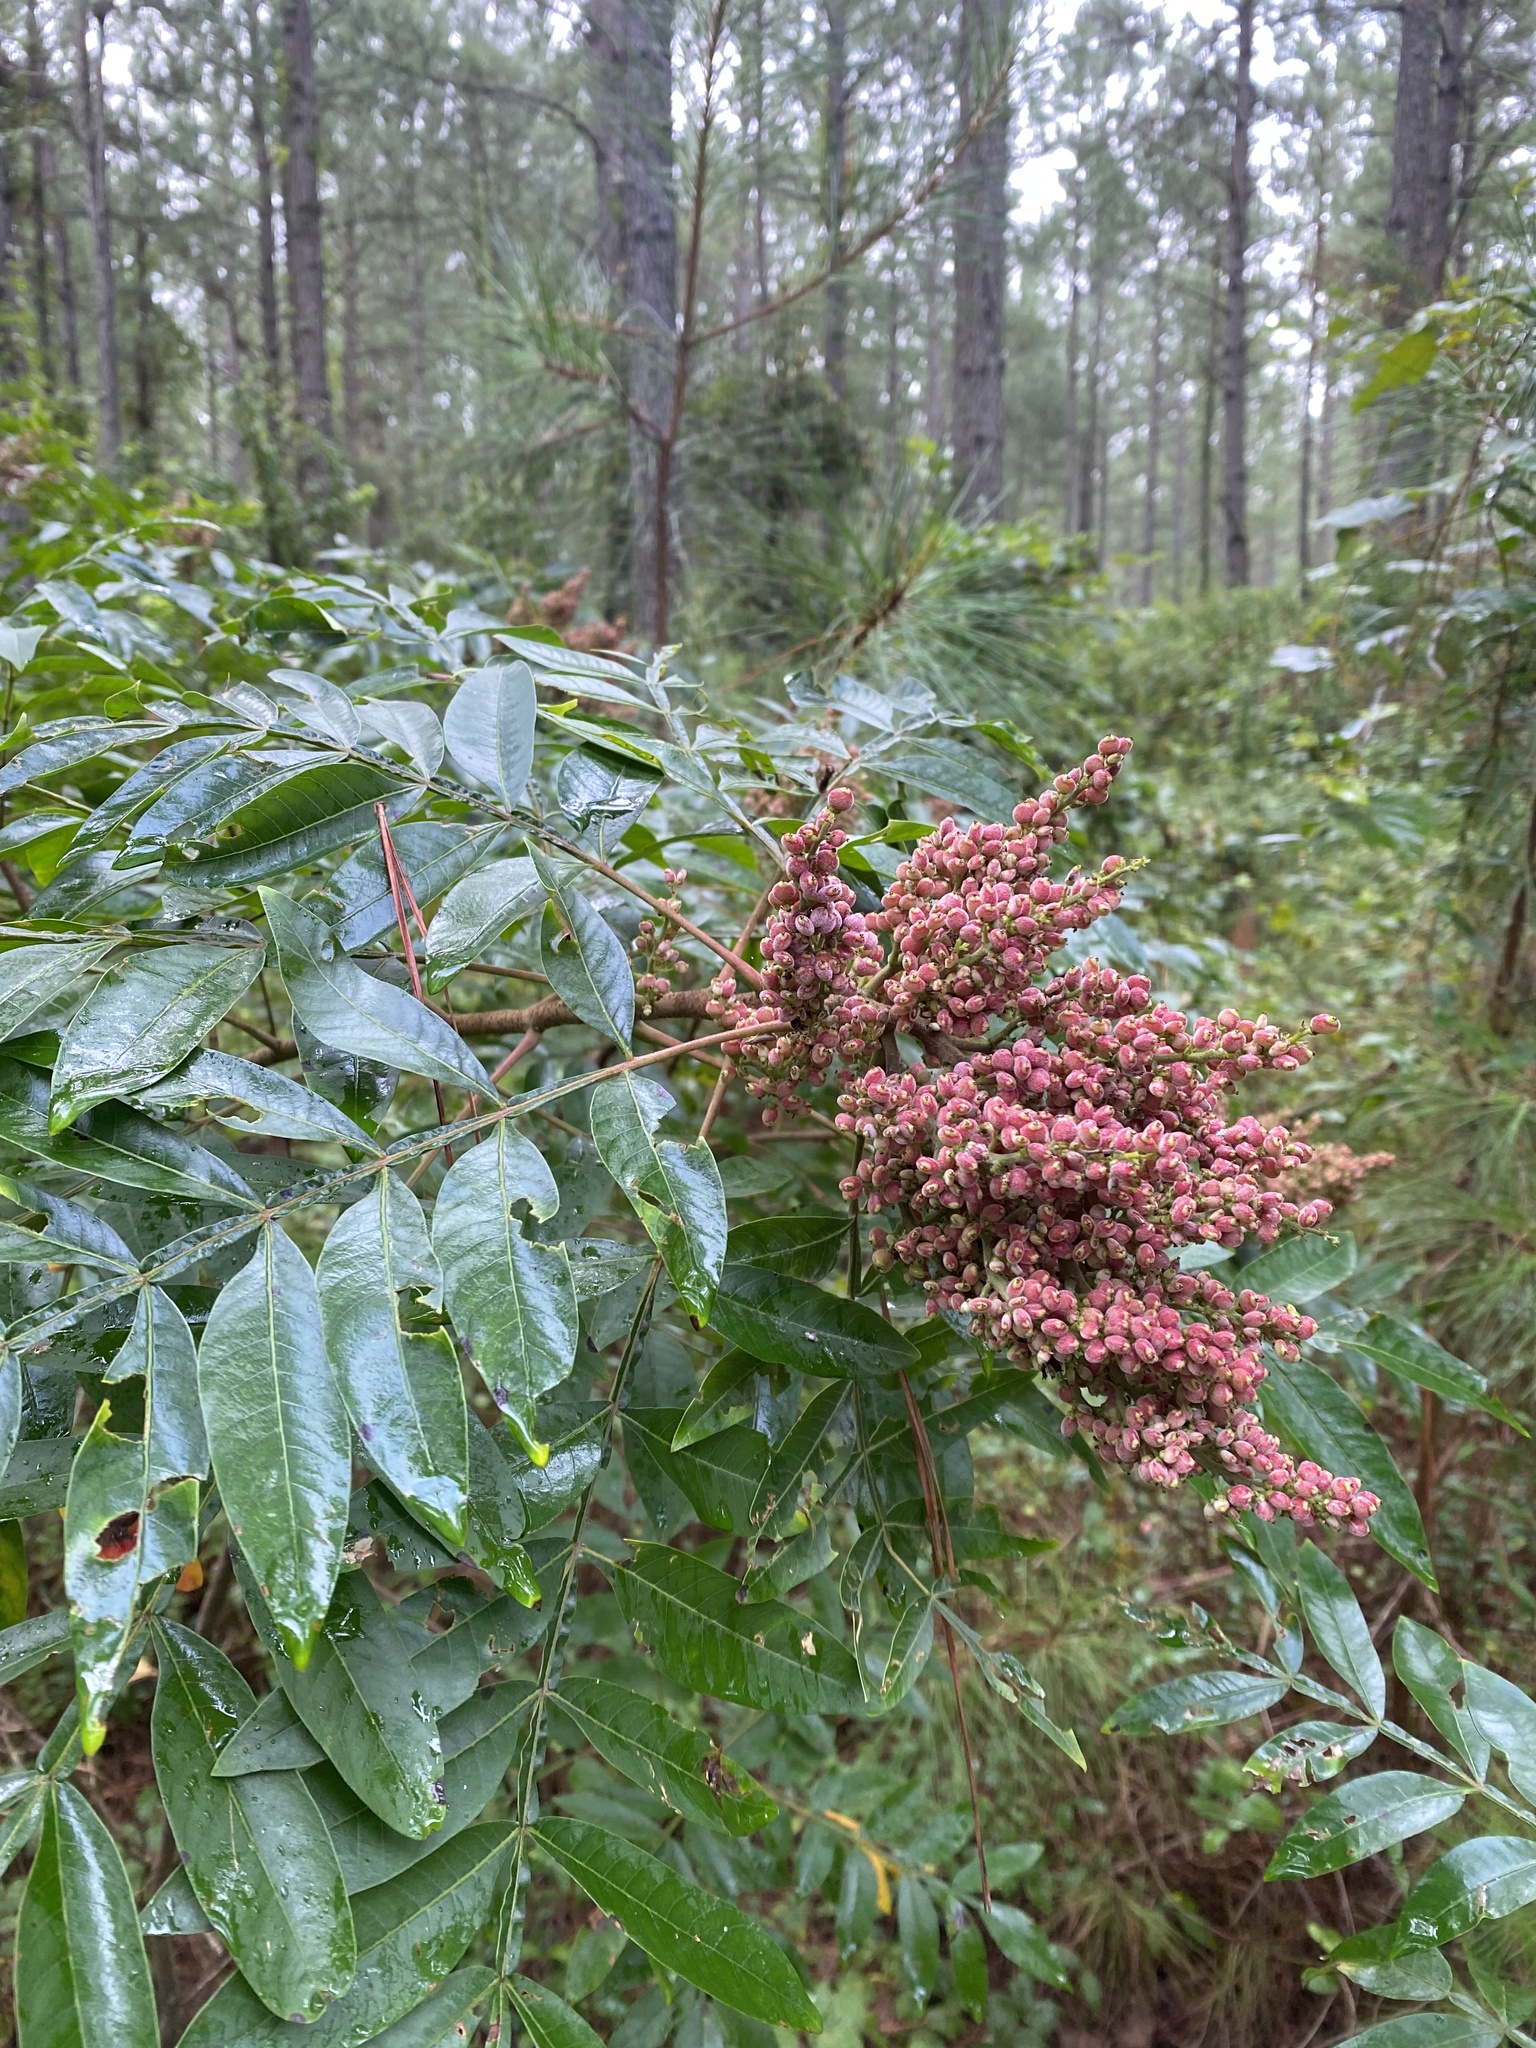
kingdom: Plantae
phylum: Tracheophyta
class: Magnoliopsida
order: Sapindales
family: Anacardiaceae
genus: Rhus
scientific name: Rhus copallina
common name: Shining sumac
